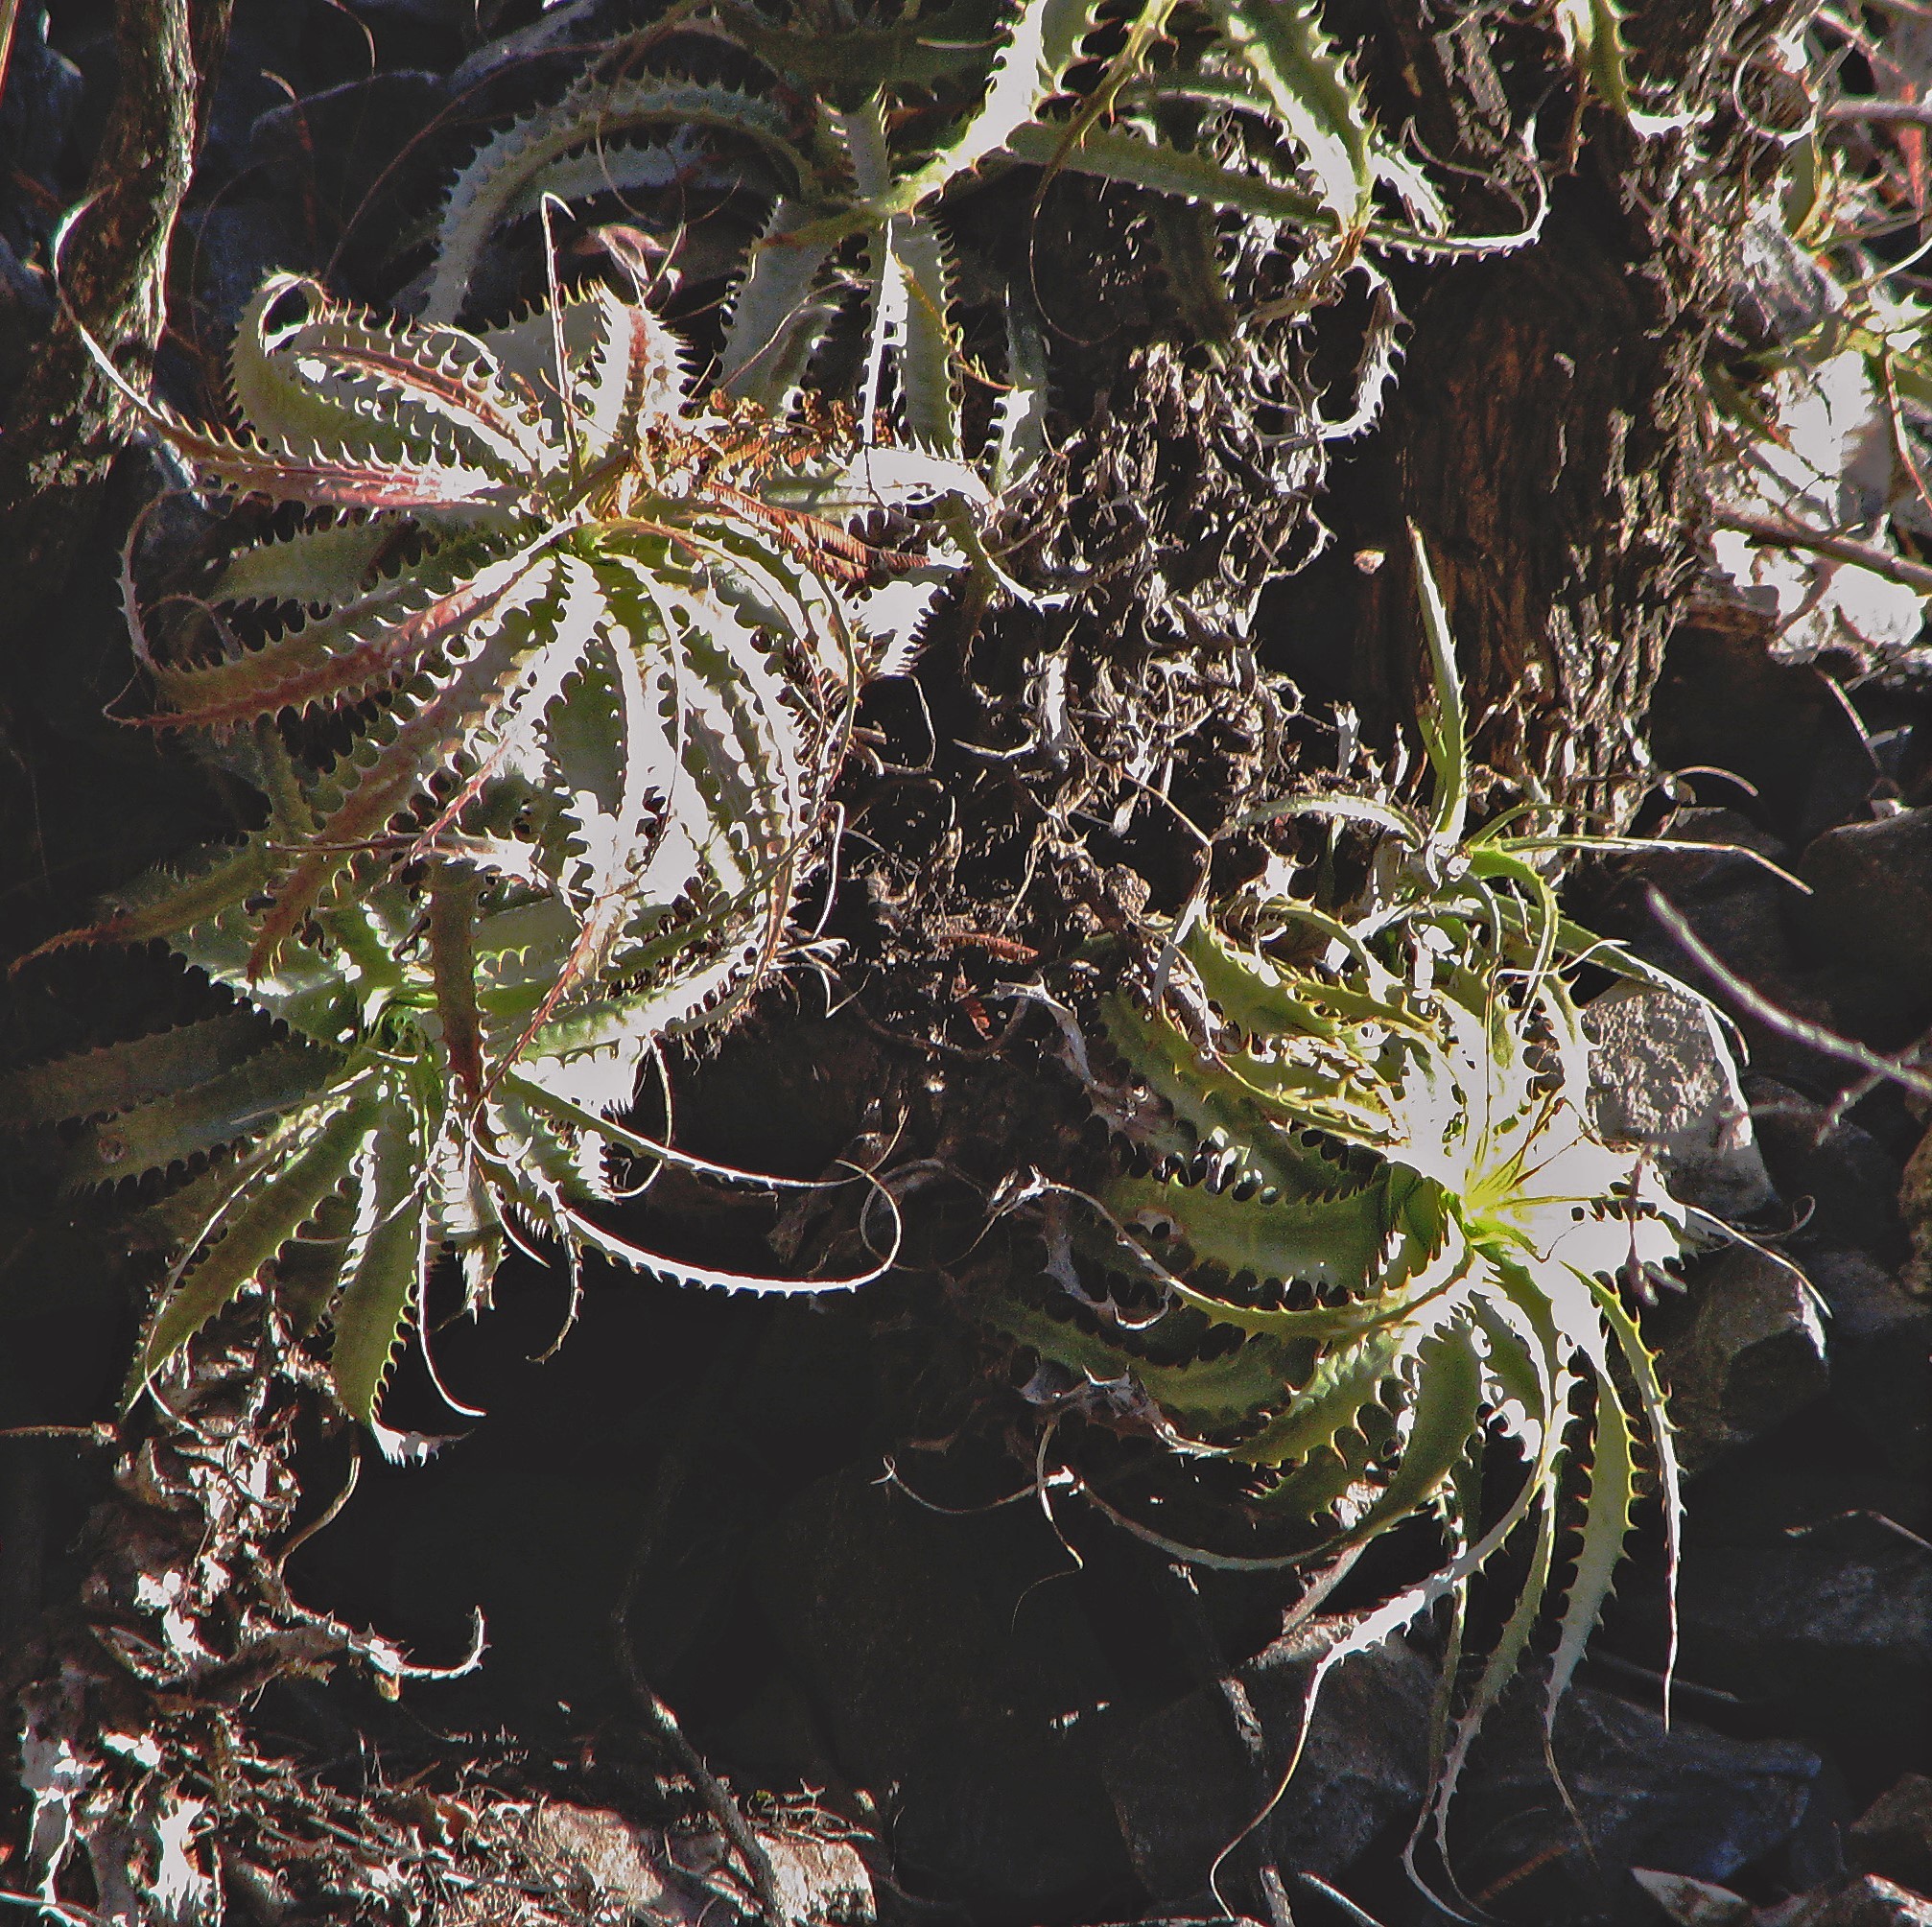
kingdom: Plantae
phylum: Tracheophyta
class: Liliopsida
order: Poales
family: Bromeliaceae
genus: Deuterocohnia
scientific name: Deuterocohnia longipetala
